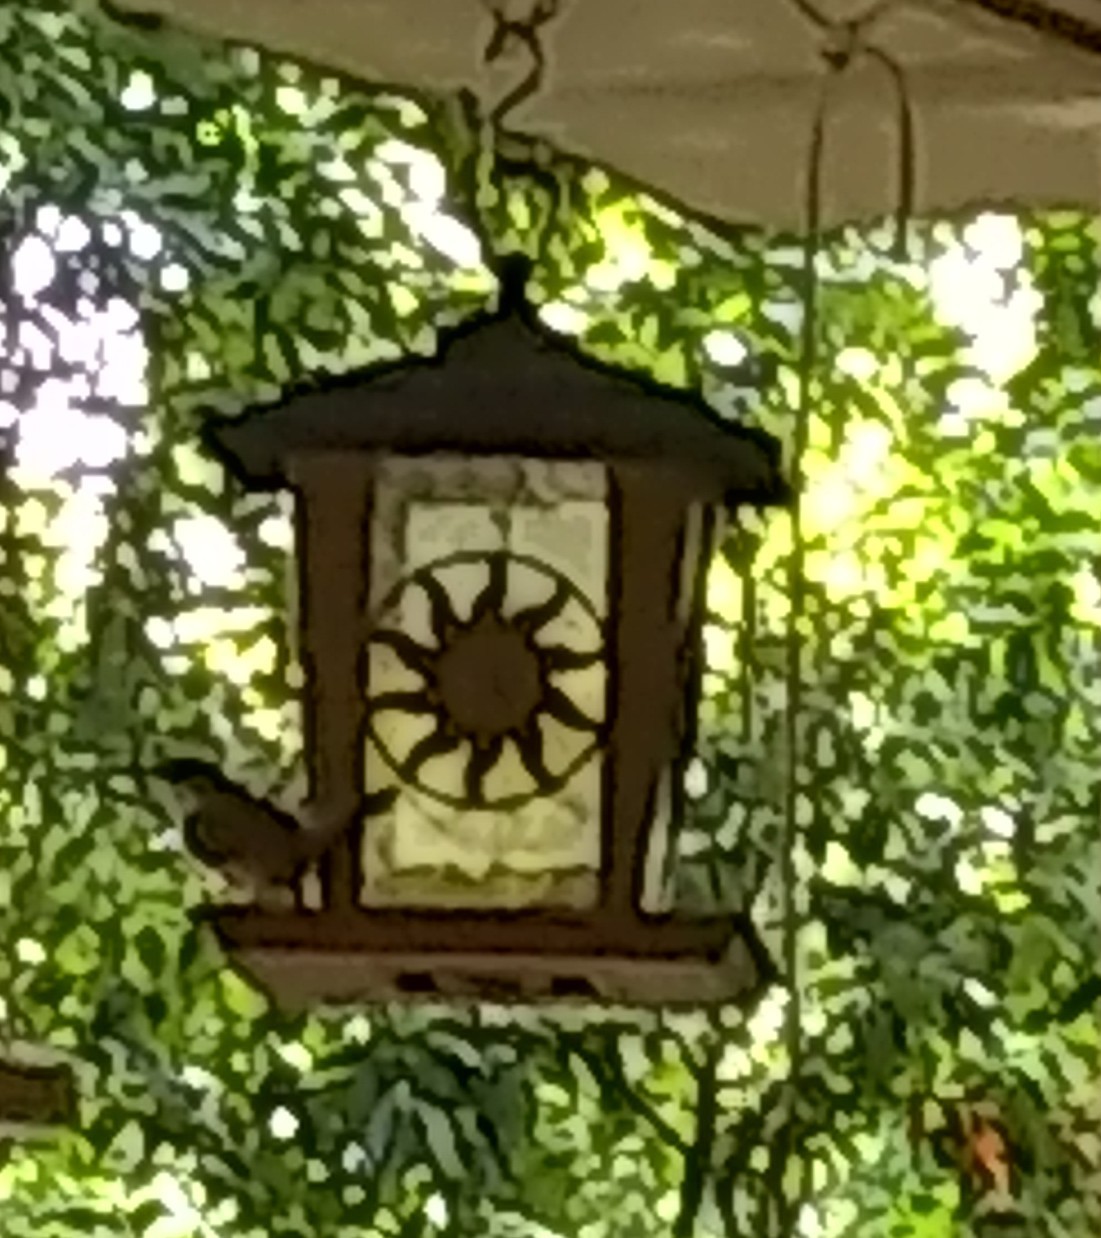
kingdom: Animalia
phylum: Chordata
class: Aves
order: Passeriformes
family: Troglodytidae
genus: Thryothorus
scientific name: Thryothorus ludovicianus
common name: Carolina wren
